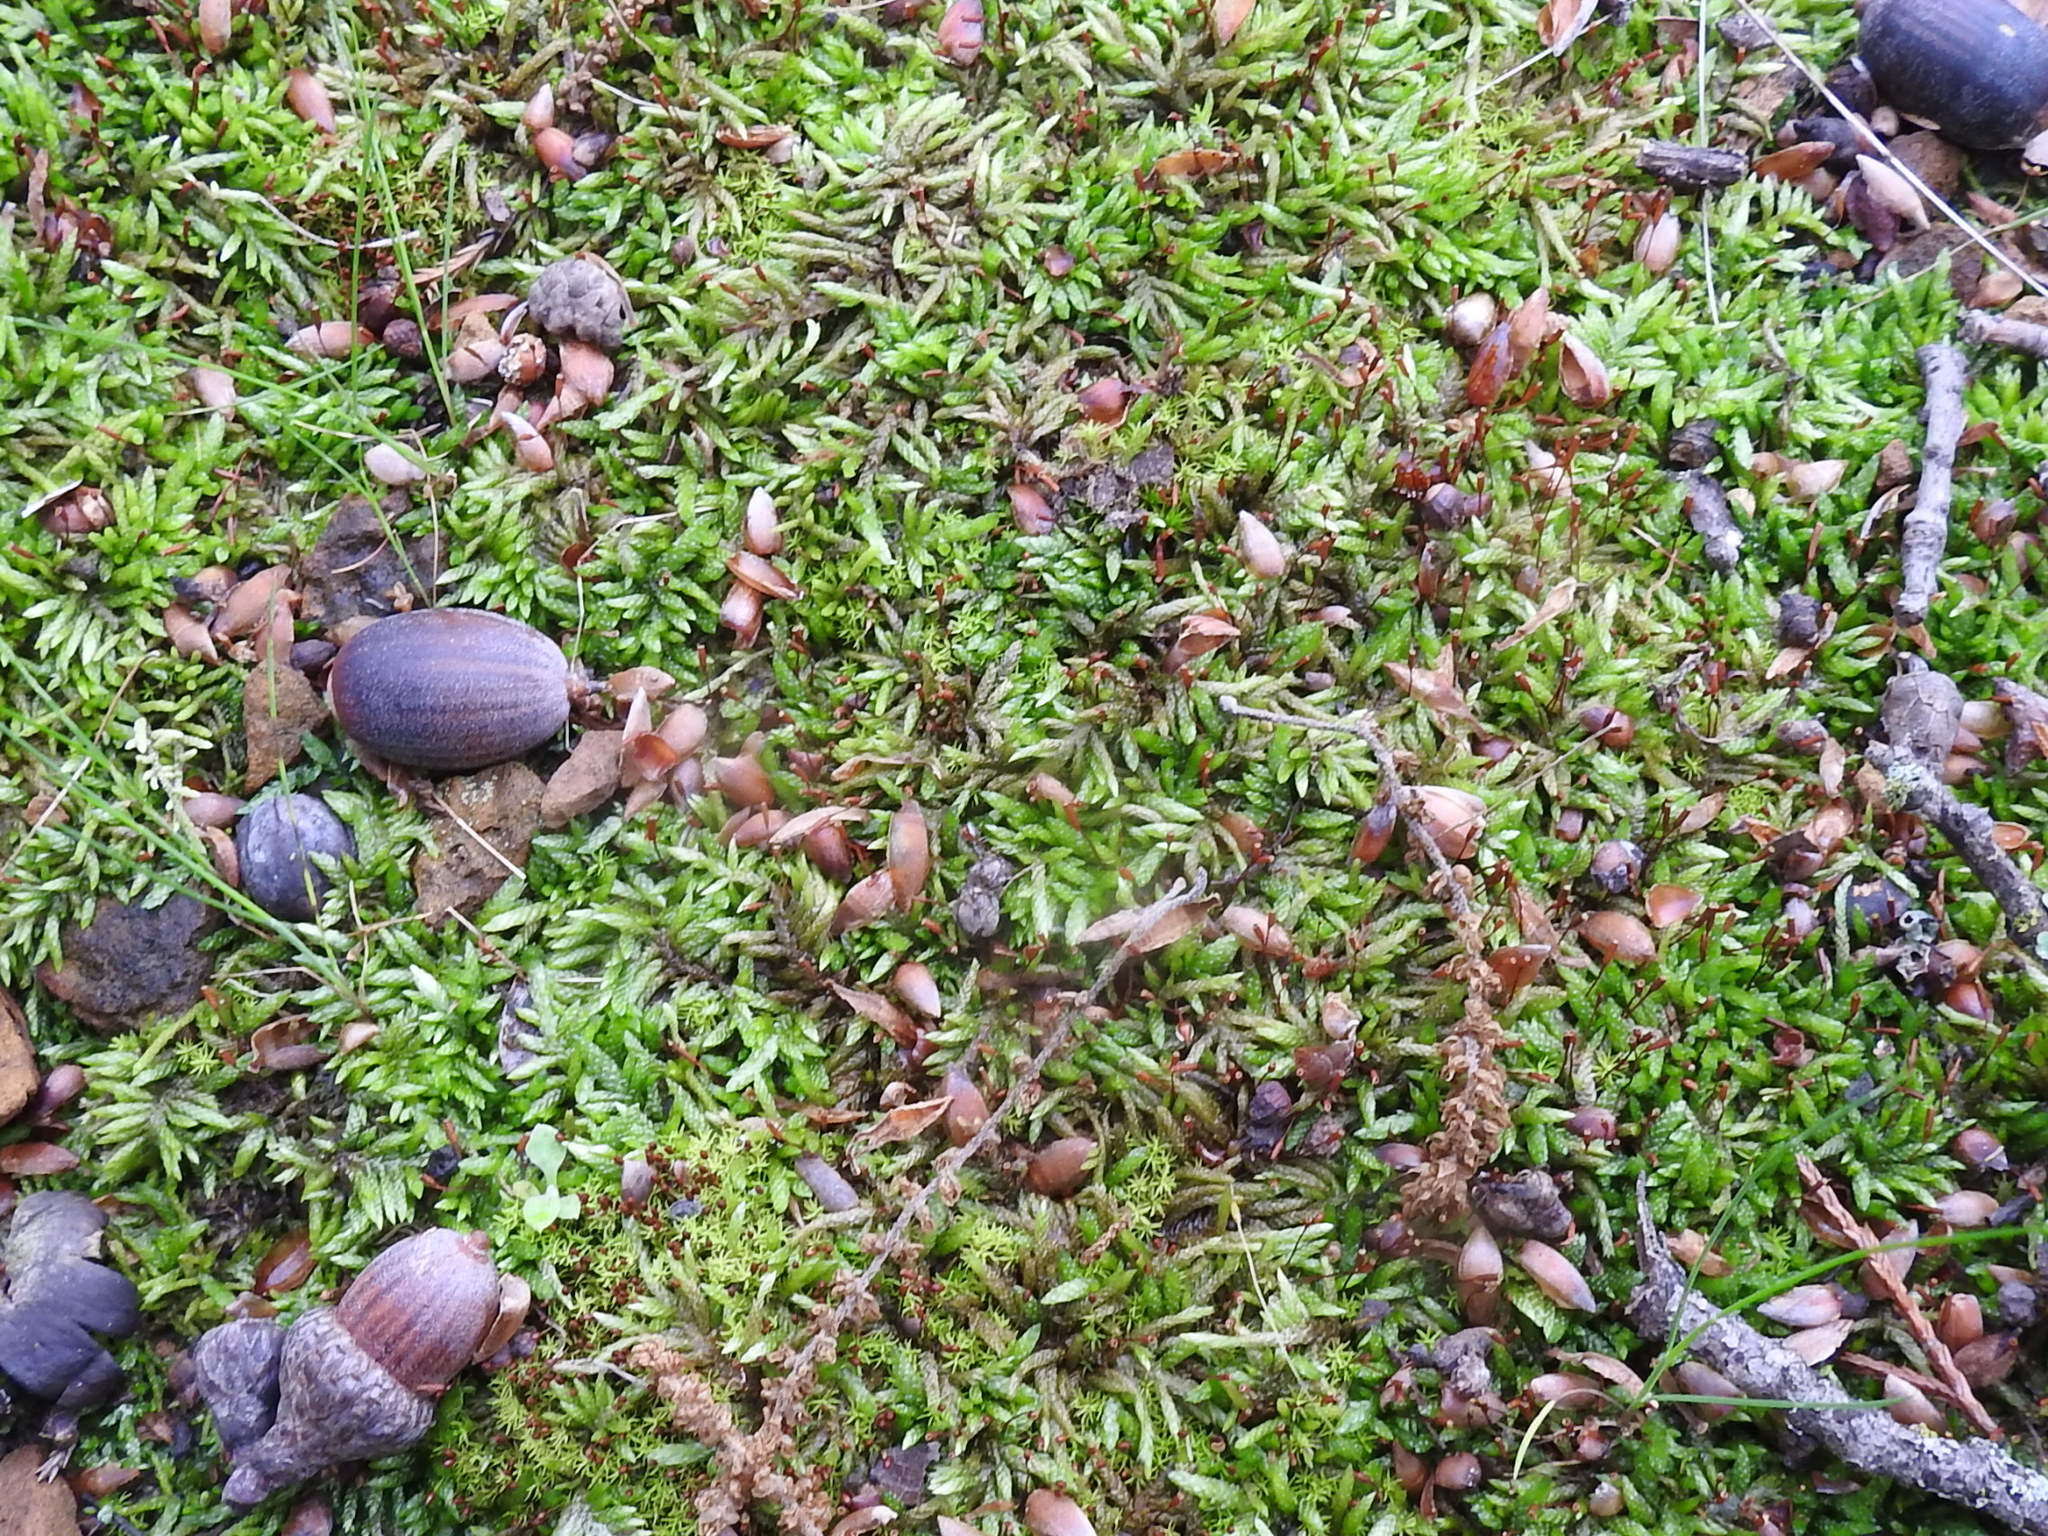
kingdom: Plantae
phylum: Bryophyta
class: Bryopsida
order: Hypnales
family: Entodontaceae
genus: Entodon
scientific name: Entodon seductrix
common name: Round-stemmed entodon moss
